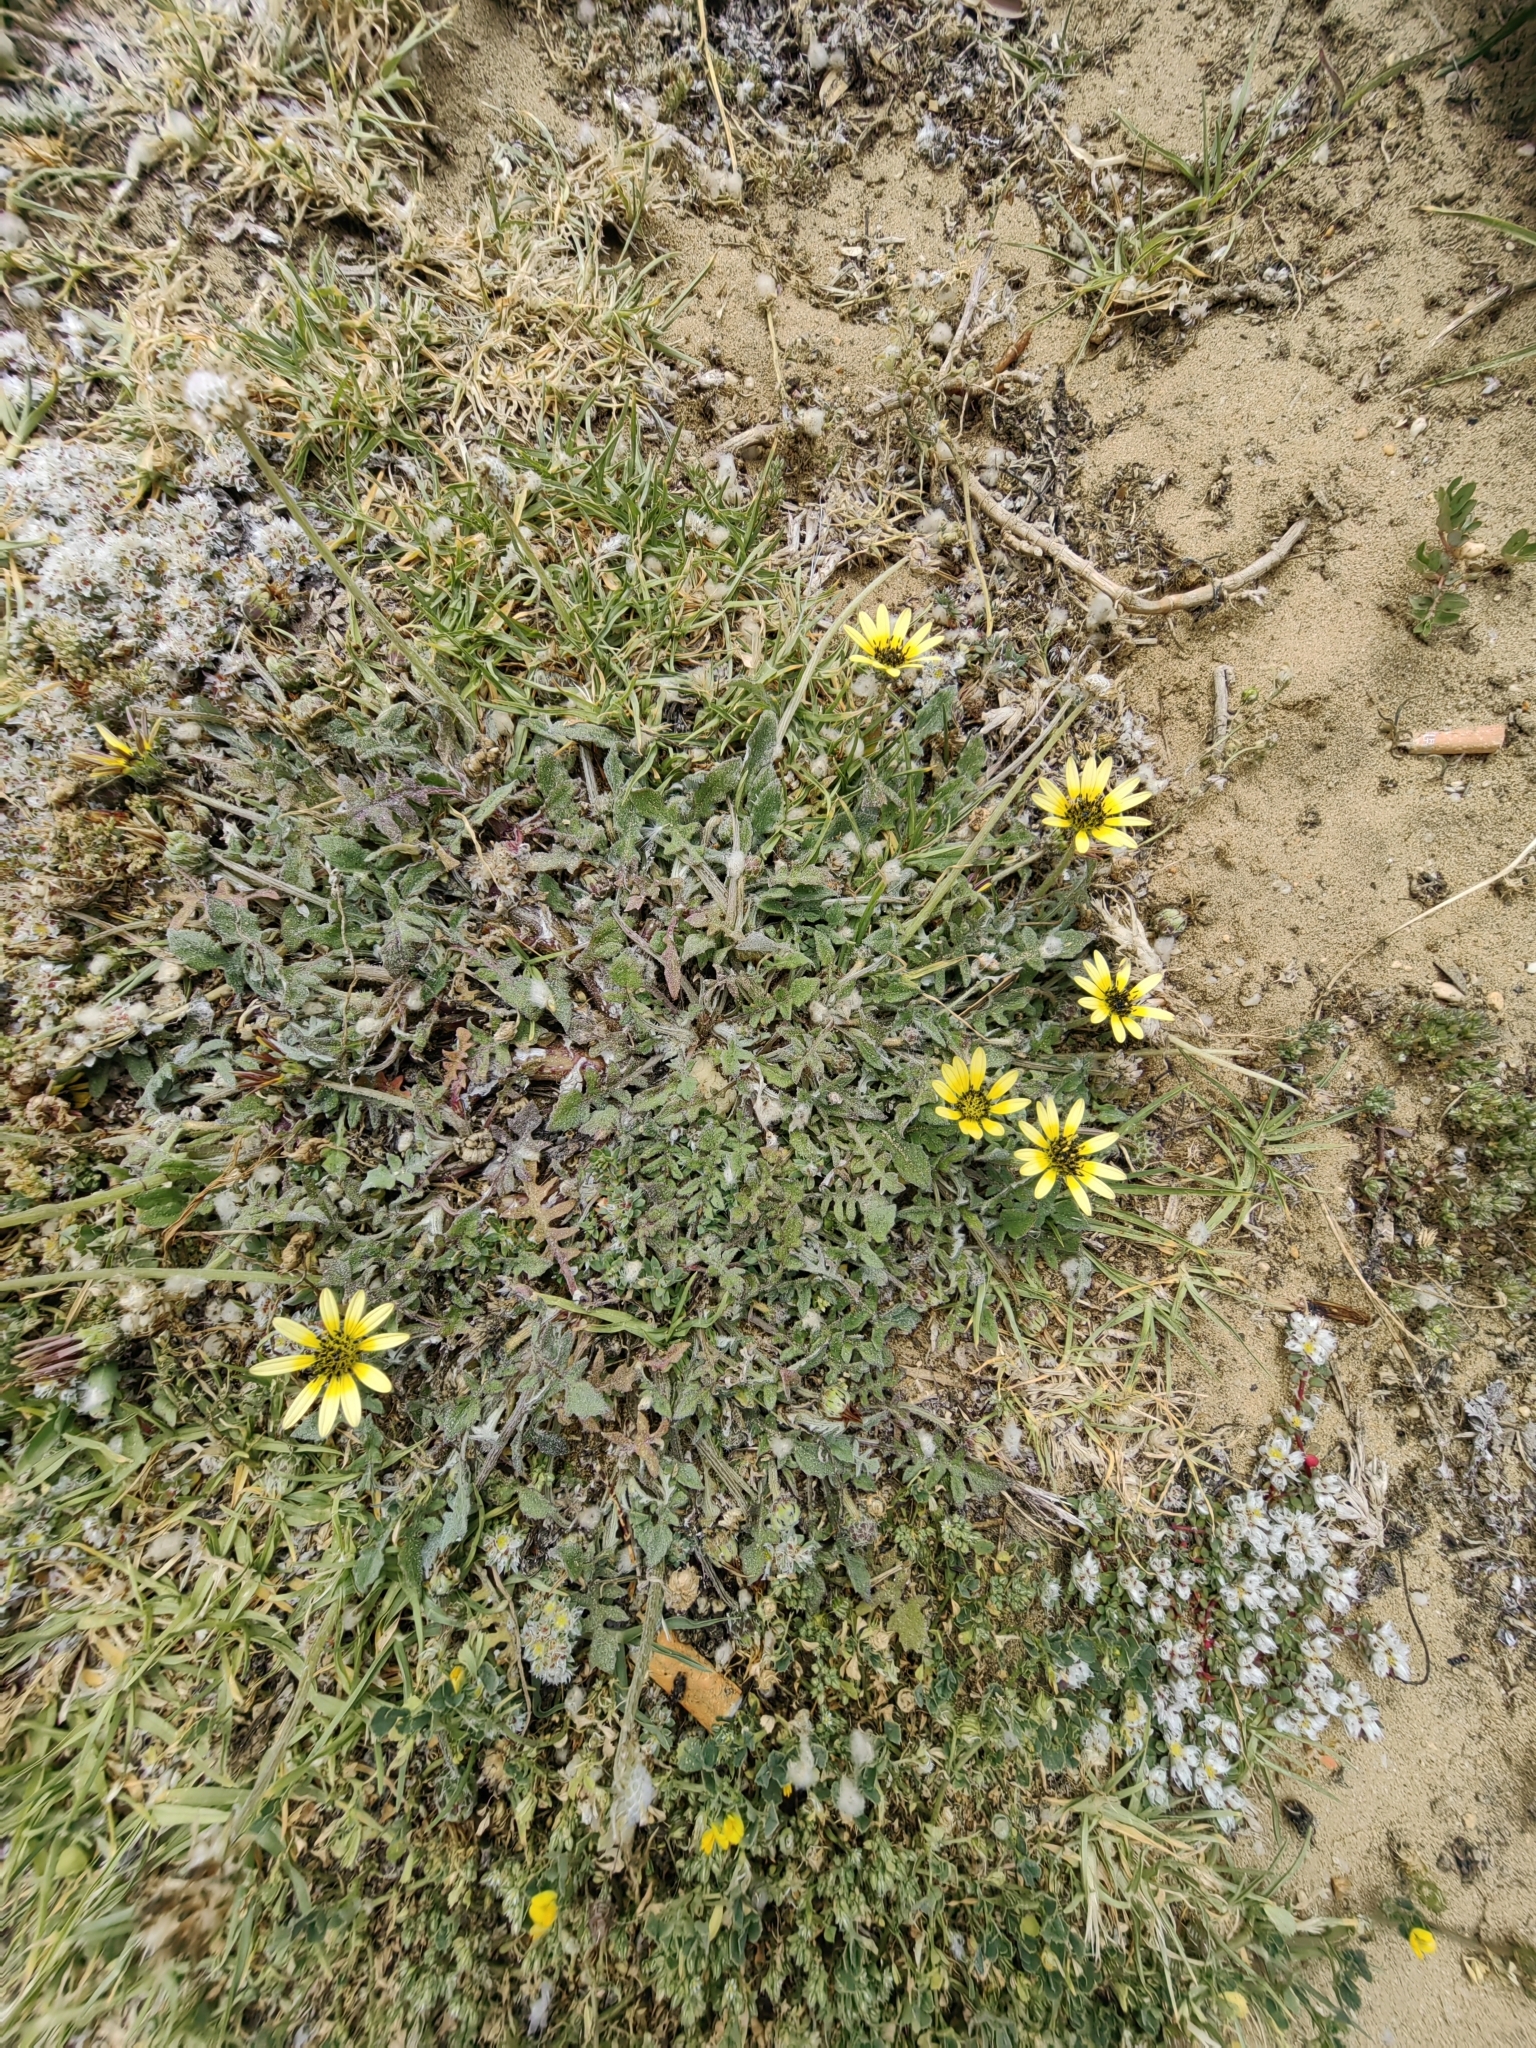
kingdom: Plantae
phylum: Tracheophyta
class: Magnoliopsida
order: Asterales
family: Asteraceae
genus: Arctotheca
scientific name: Arctotheca calendula
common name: Capeweed
